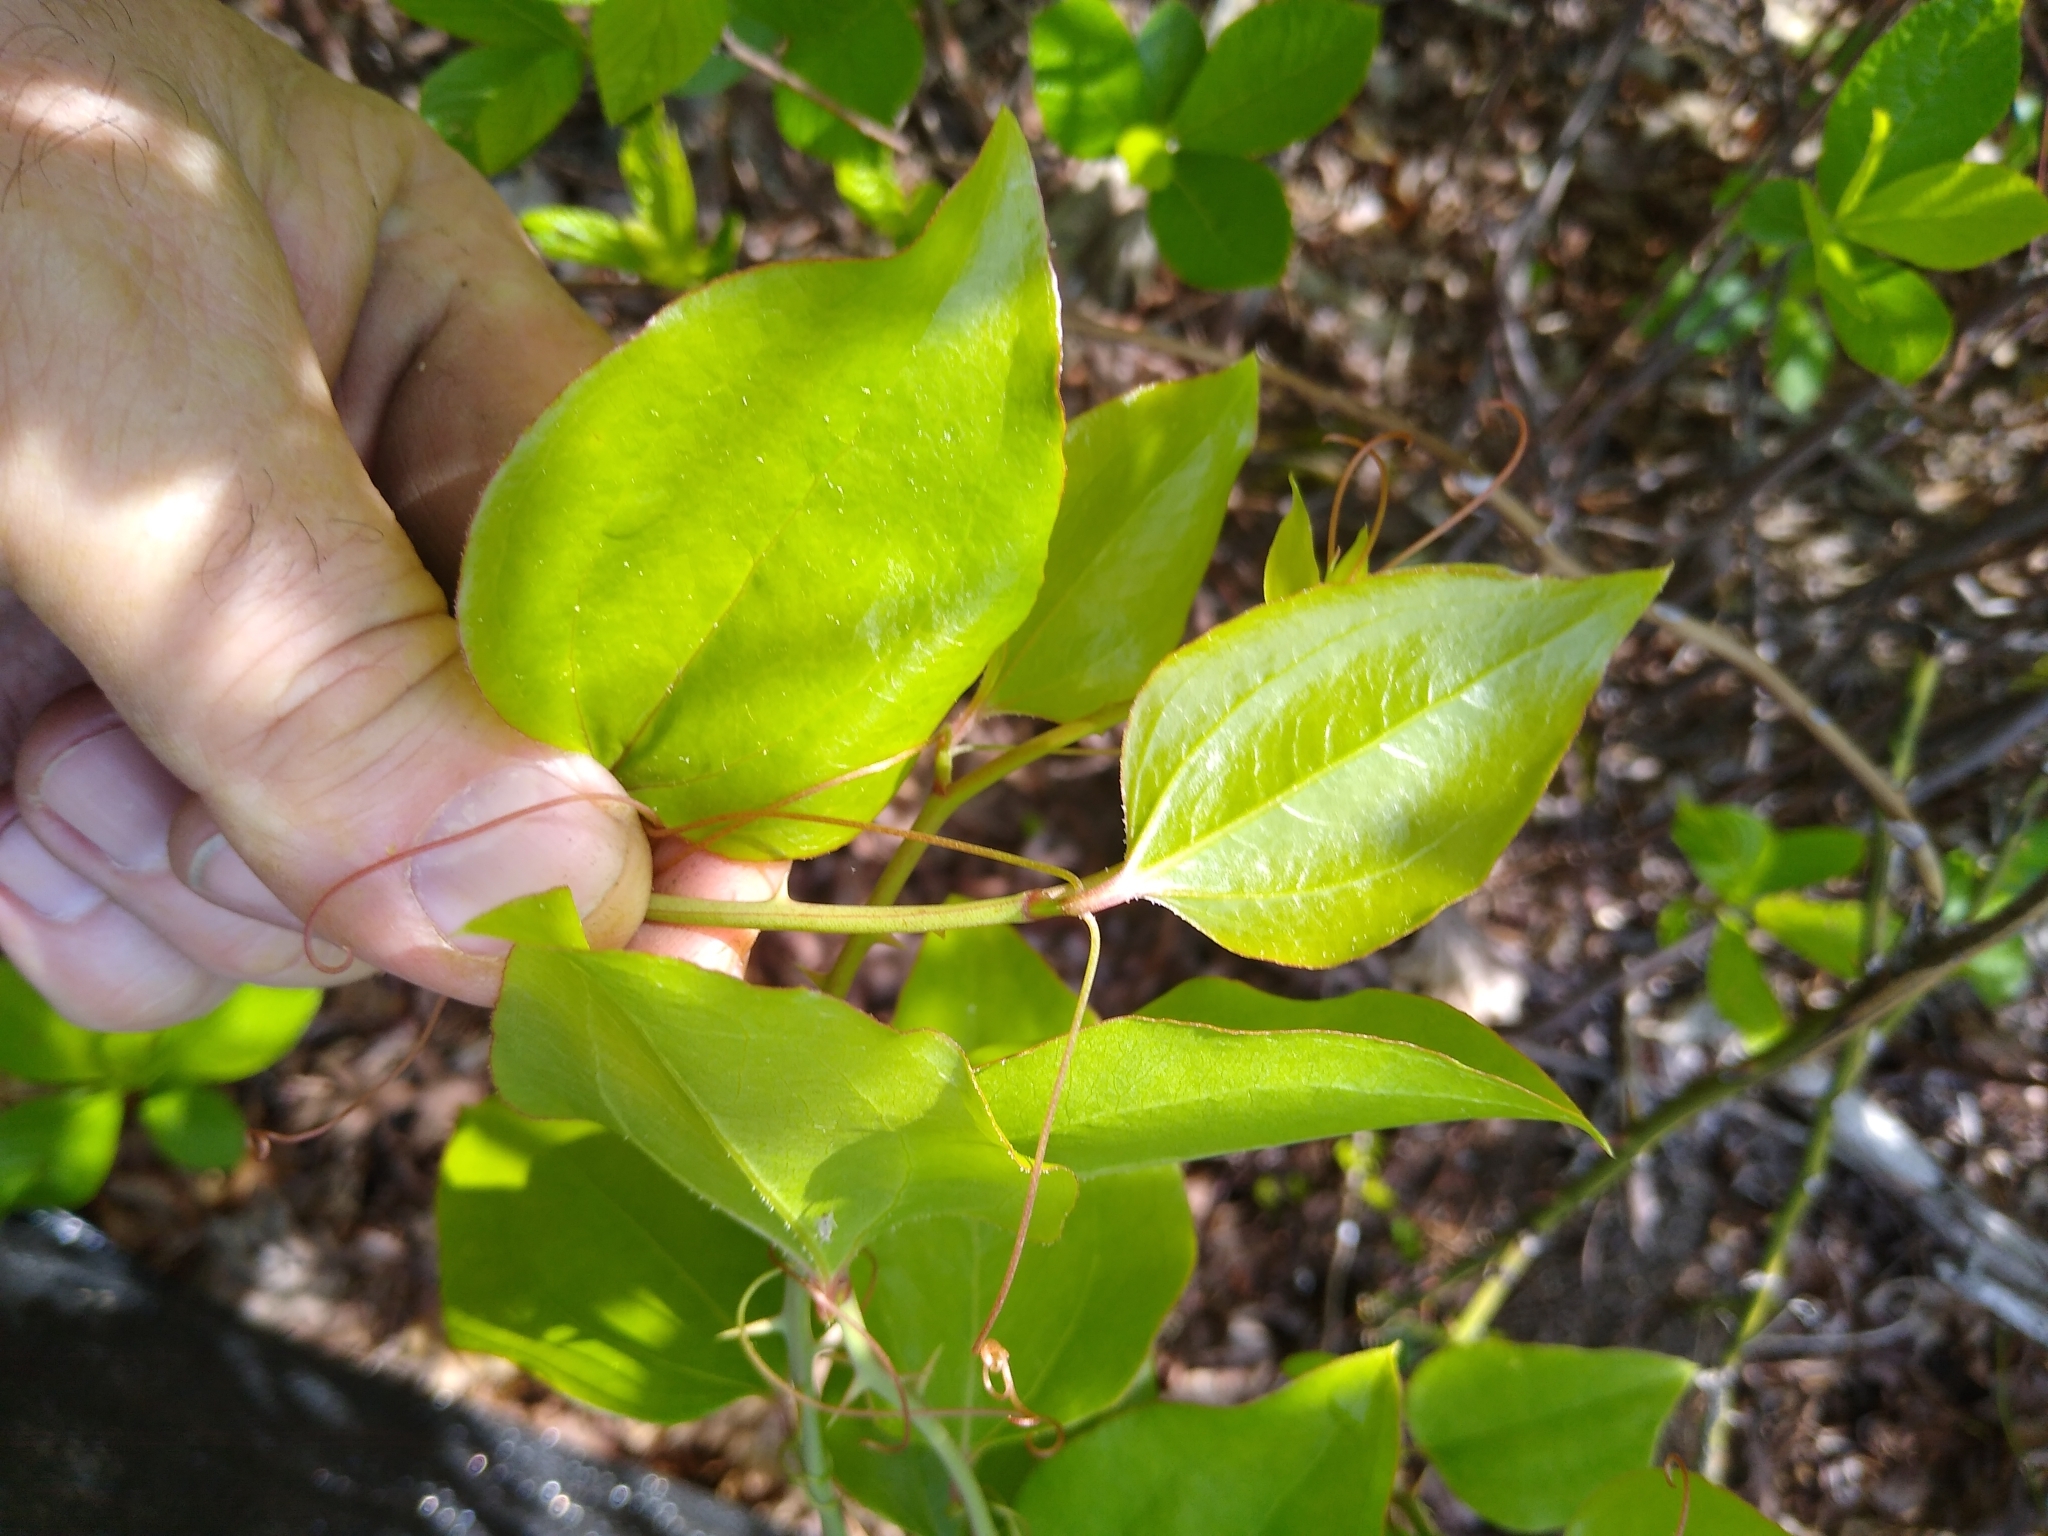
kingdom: Plantae
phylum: Tracheophyta
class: Liliopsida
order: Liliales
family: Smilacaceae
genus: Smilax
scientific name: Smilax rotundifolia
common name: Bullbriar
